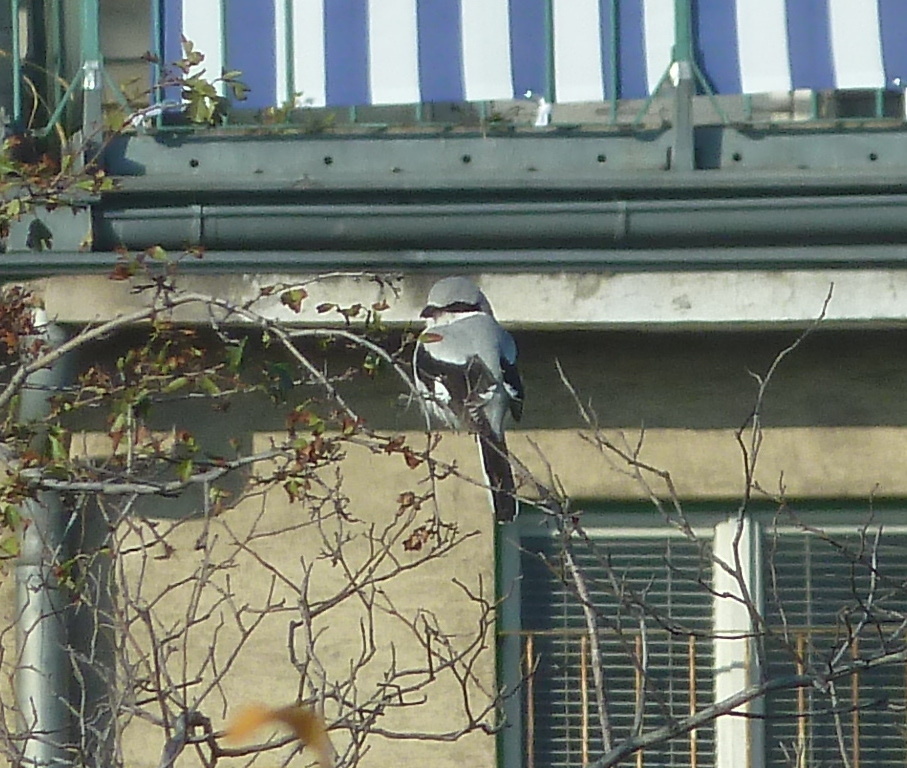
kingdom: Animalia
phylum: Chordata
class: Aves
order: Passeriformes
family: Laniidae
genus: Lanius
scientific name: Lanius excubitor
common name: Great grey shrike
